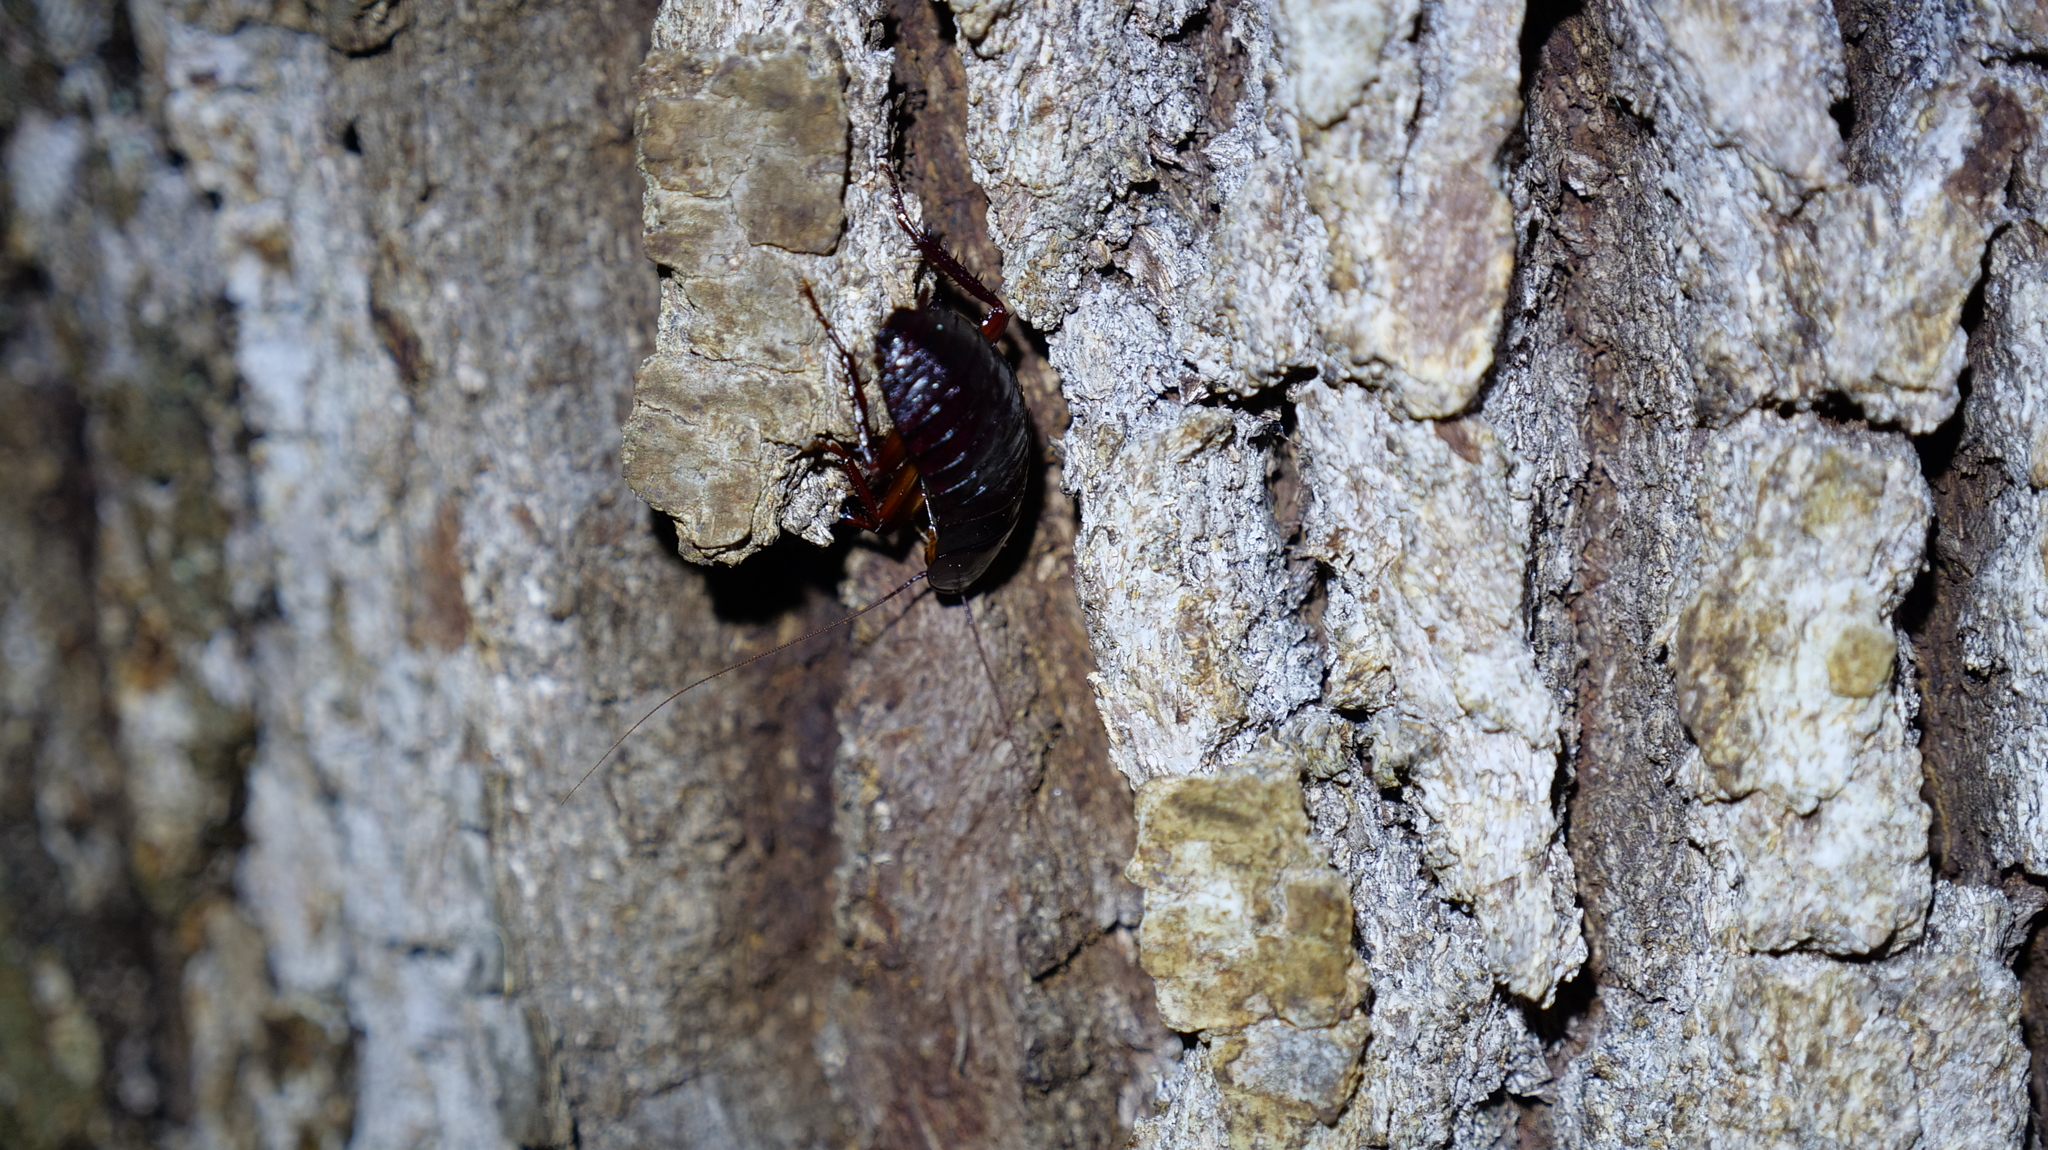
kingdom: Animalia
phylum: Arthropoda
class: Insecta
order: Blattodea
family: Blattidae
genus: Eurycotis
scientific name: Eurycotis floridana
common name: Florida cockroach
